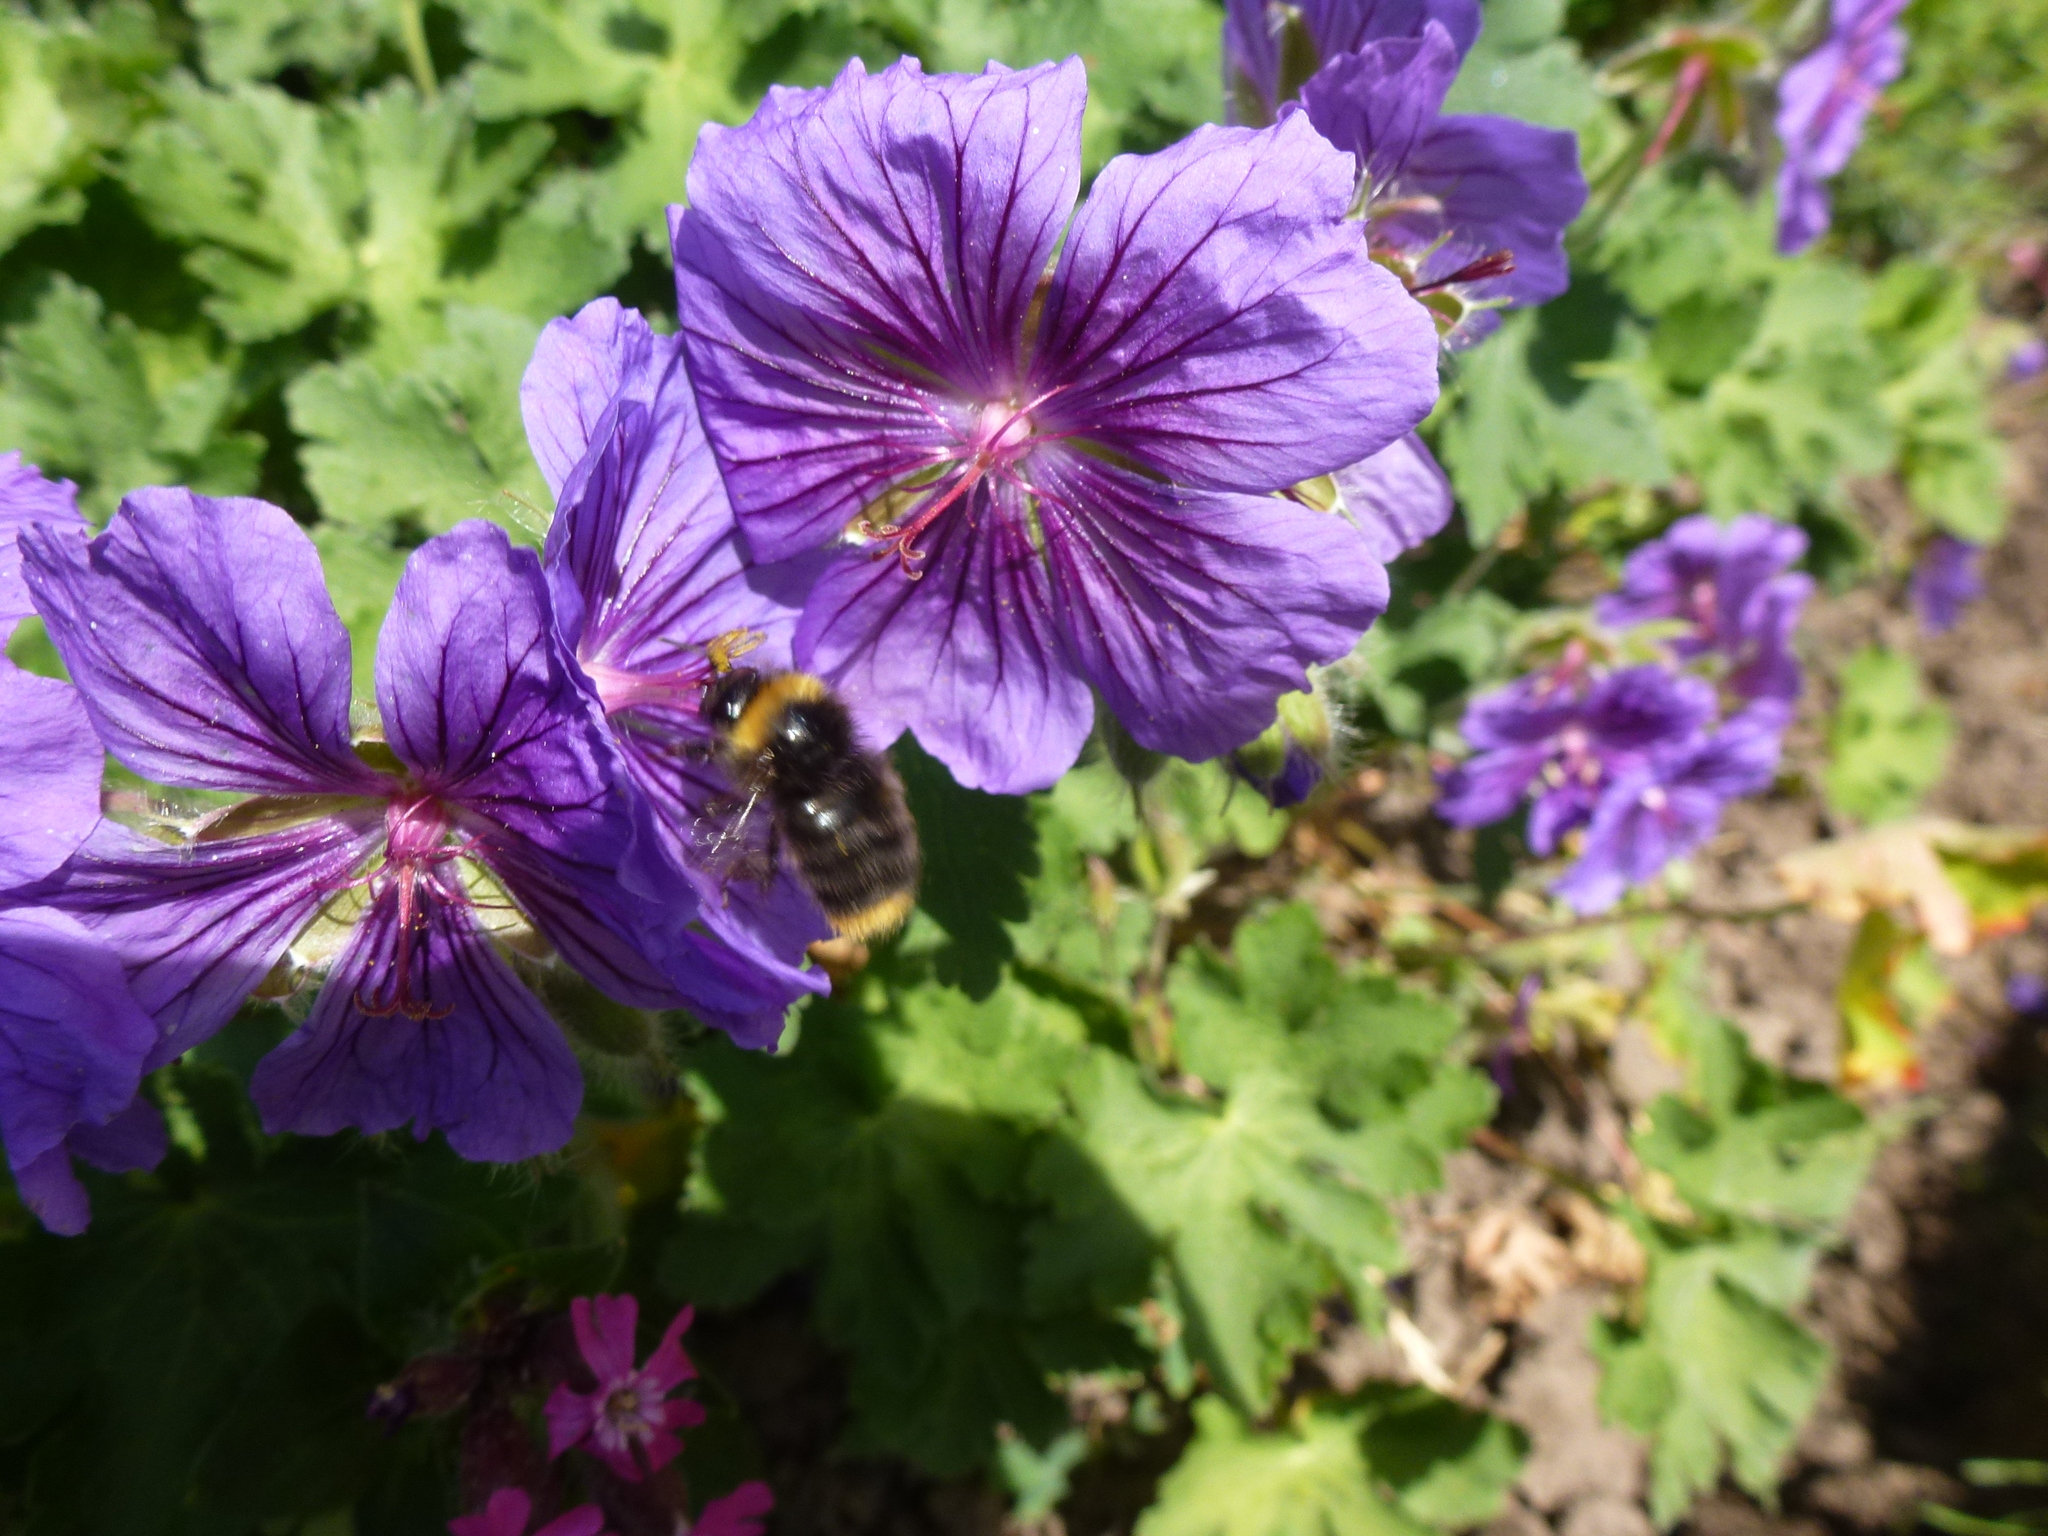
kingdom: Animalia
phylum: Arthropoda
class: Insecta
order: Hymenoptera
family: Apidae
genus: Bombus
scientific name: Bombus pratorum
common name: Early humble-bee
